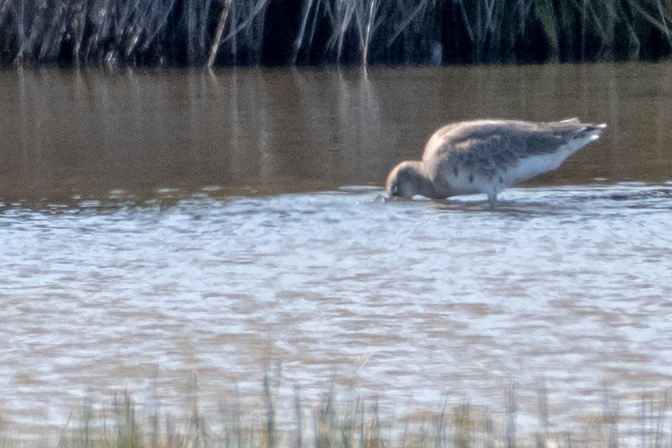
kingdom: Animalia
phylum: Chordata
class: Aves
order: Charadriiformes
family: Scolopacidae
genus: Limosa
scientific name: Limosa limosa
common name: Black-tailed godwit
